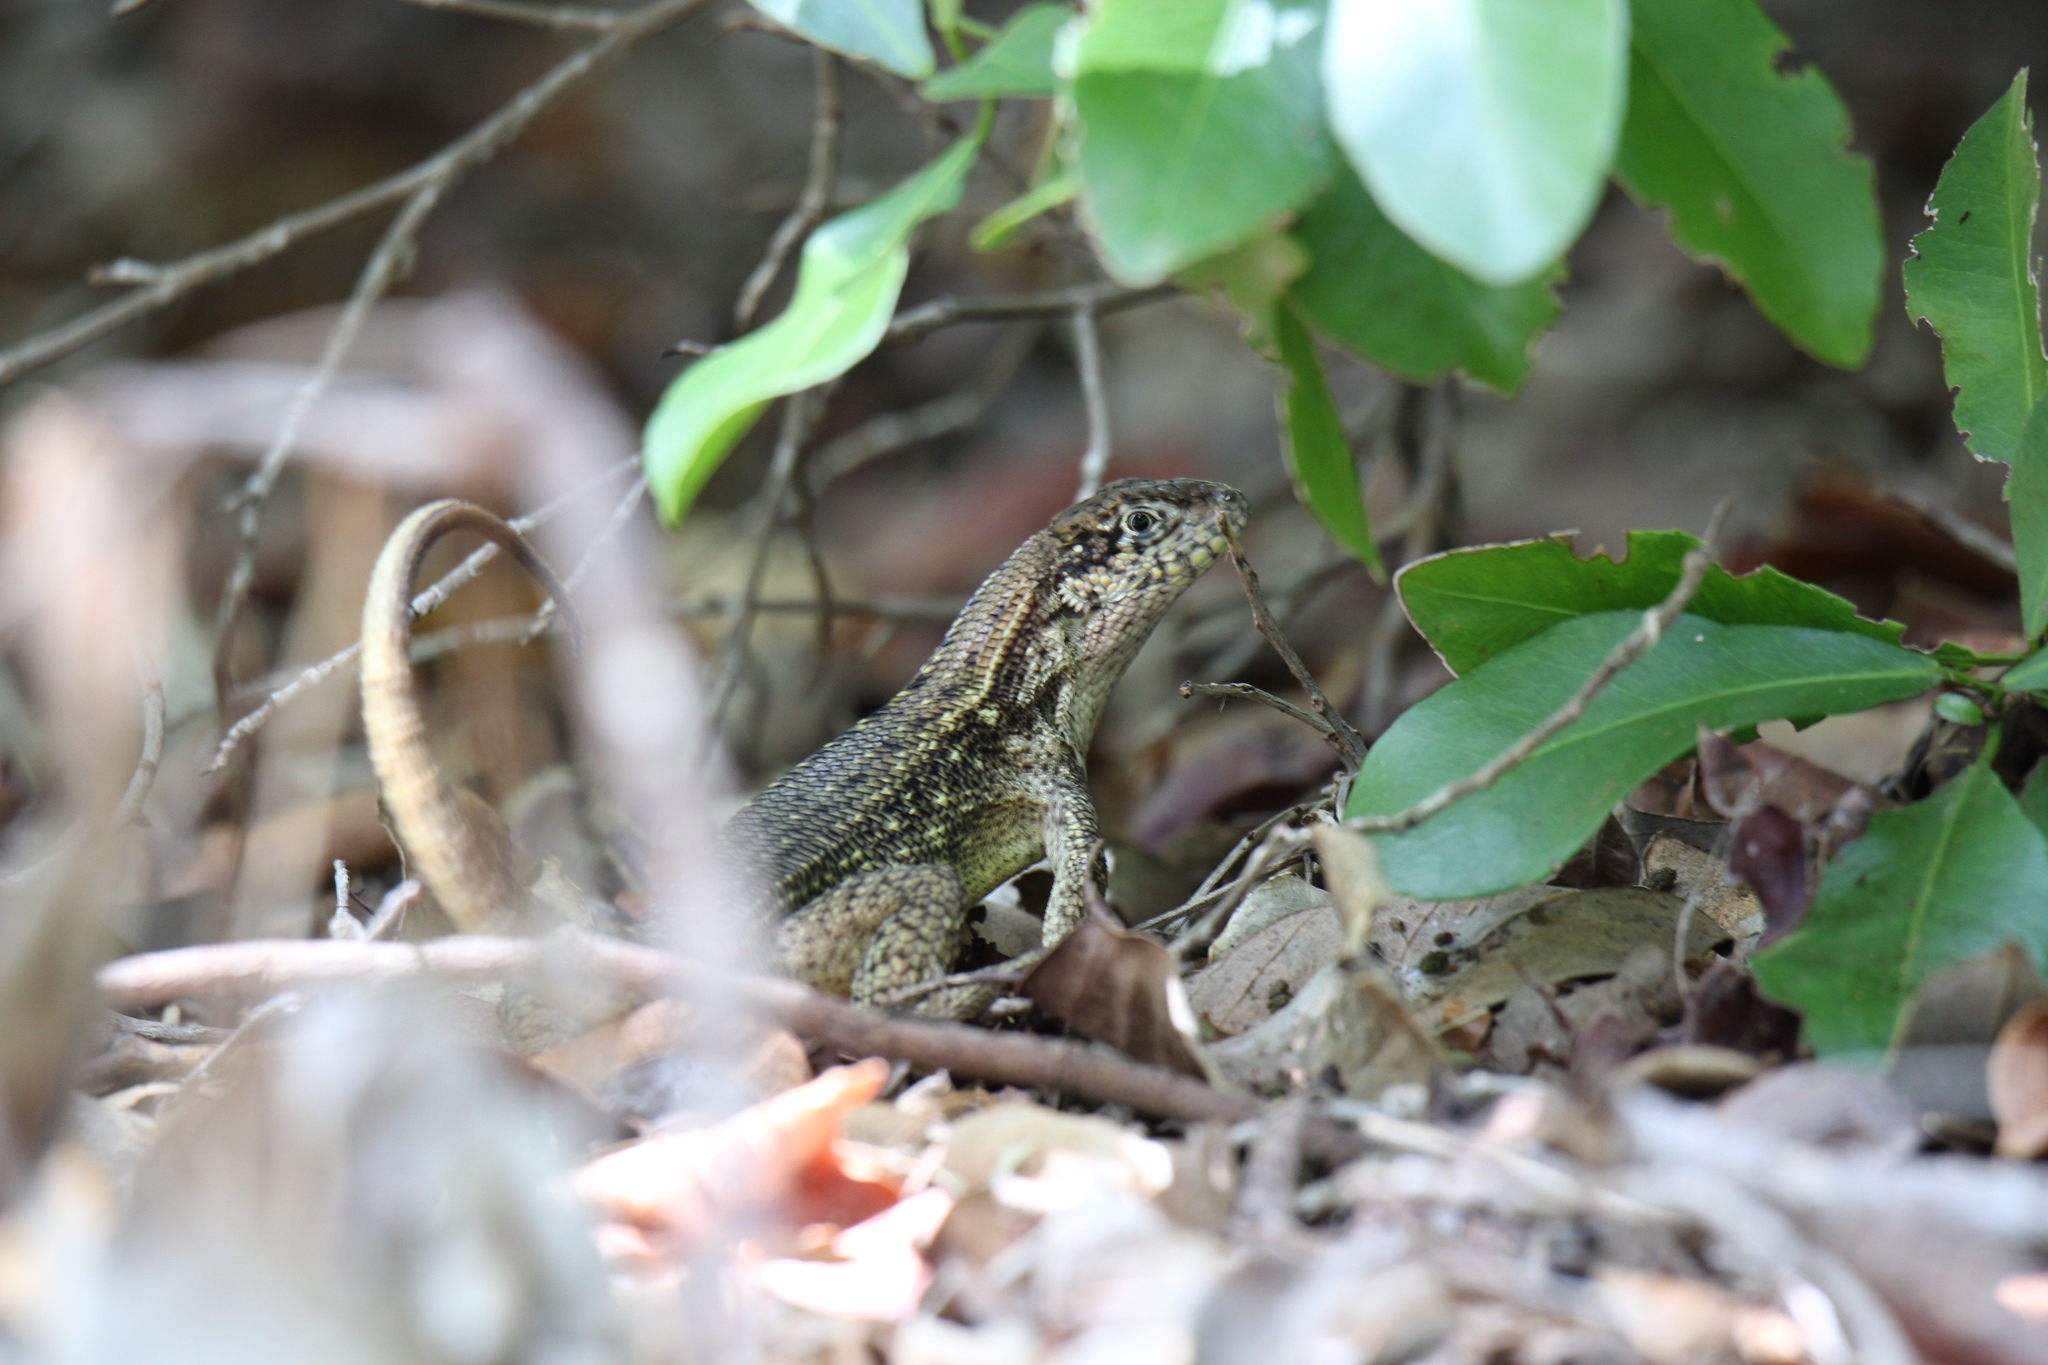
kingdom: Animalia
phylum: Chordata
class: Squamata
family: Leiocephalidae
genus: Leiocephalus
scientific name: Leiocephalus carinatus
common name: Northern curly-tailed lizard
